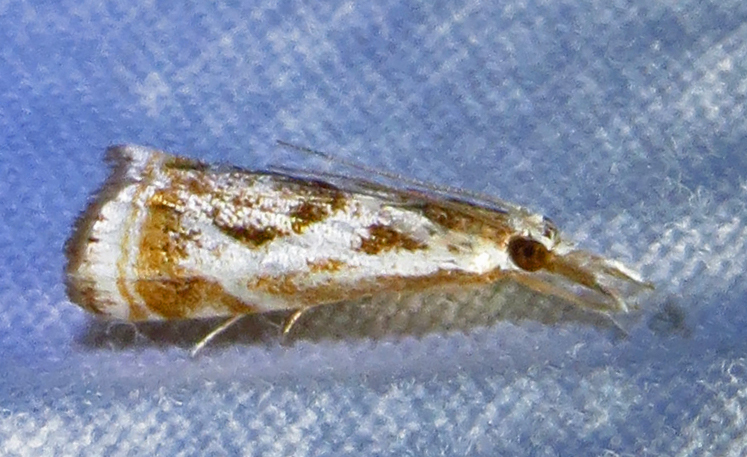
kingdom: Animalia
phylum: Arthropoda
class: Insecta
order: Lepidoptera
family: Crambidae
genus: Microcrambus
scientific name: Microcrambus elegans
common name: Elegant grass-veneer
